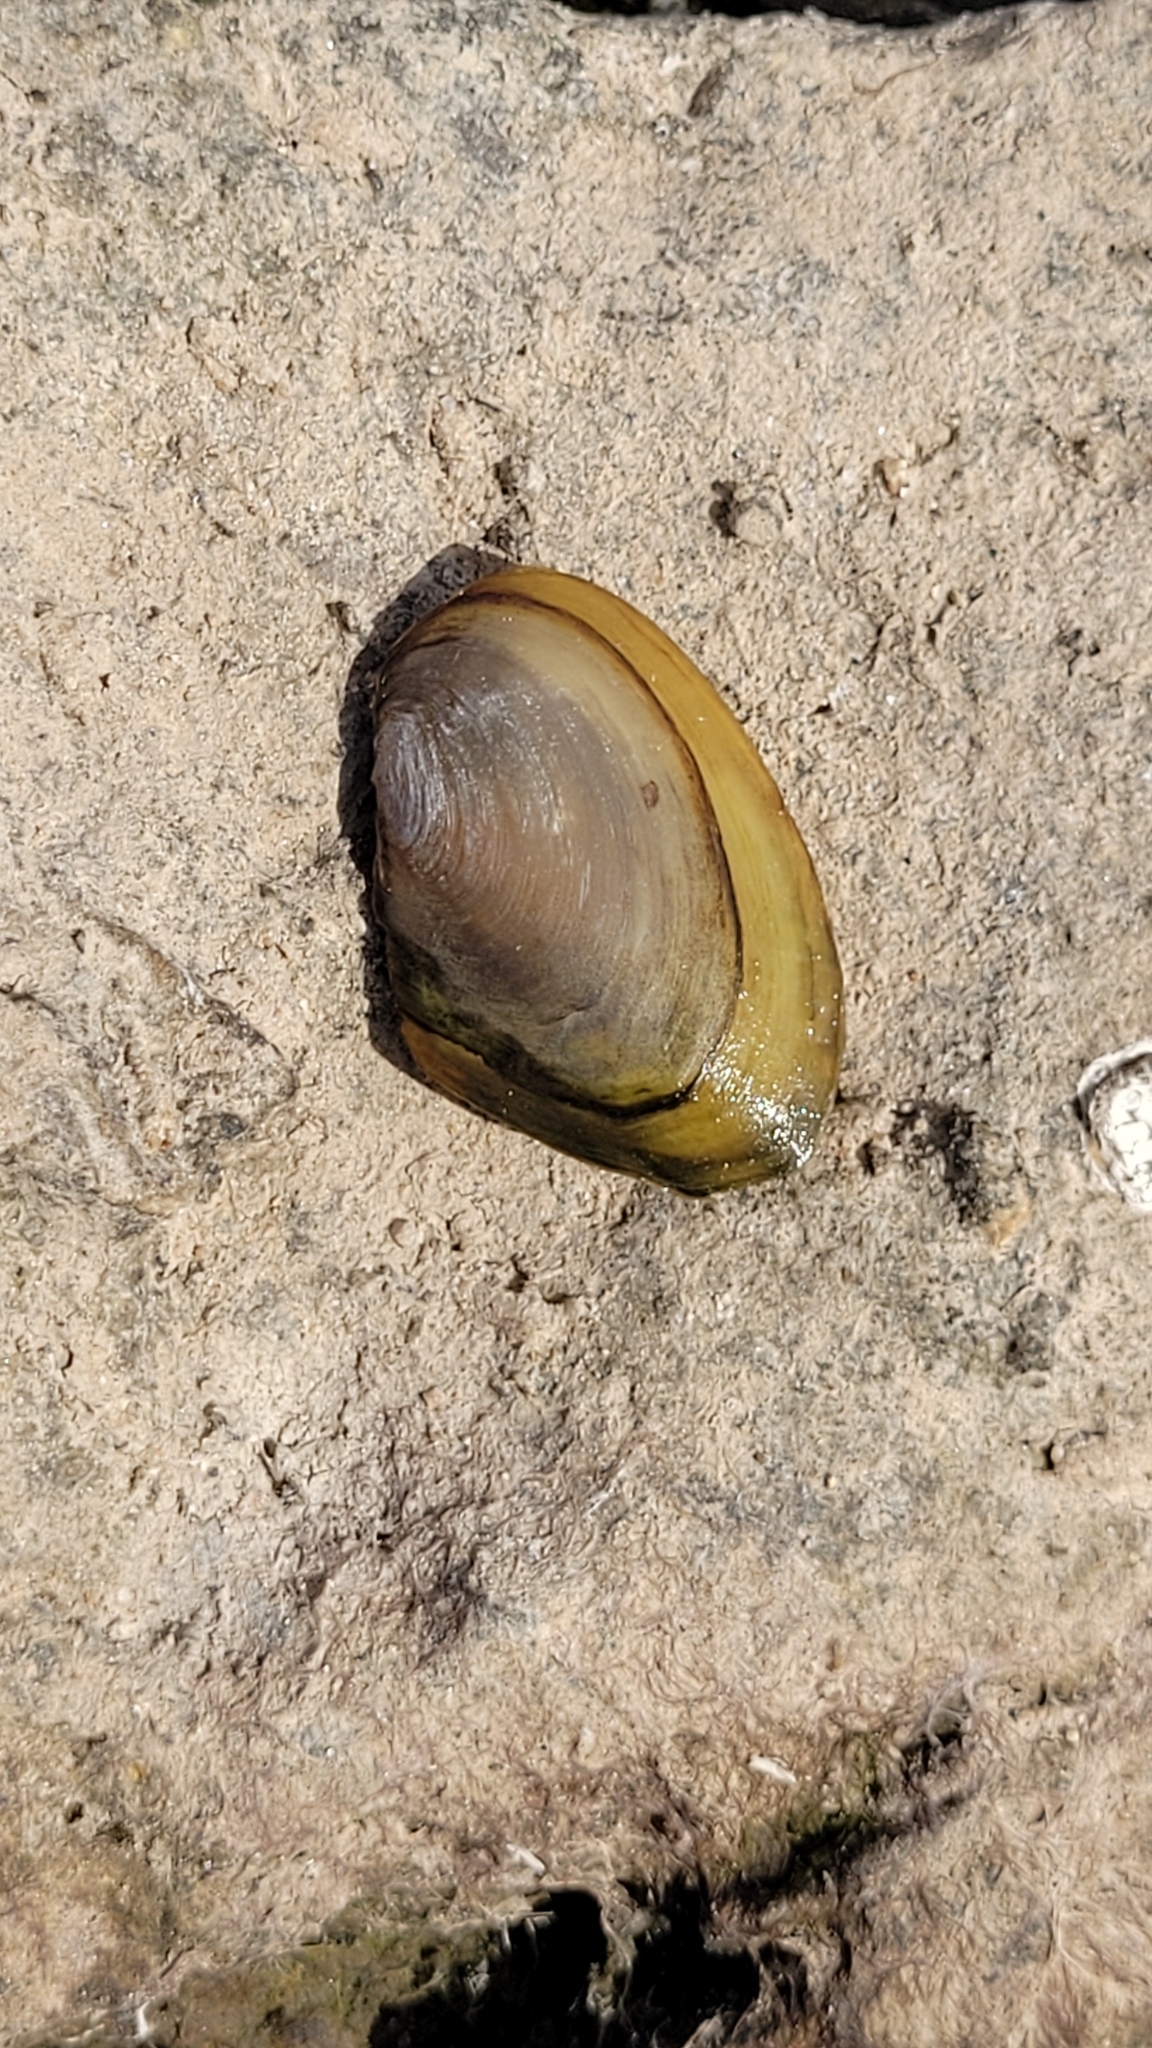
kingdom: Animalia
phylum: Mollusca
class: Bivalvia
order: Unionida
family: Unionidae
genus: Anodonta
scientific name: Anodonta anatina
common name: Duck mussel
